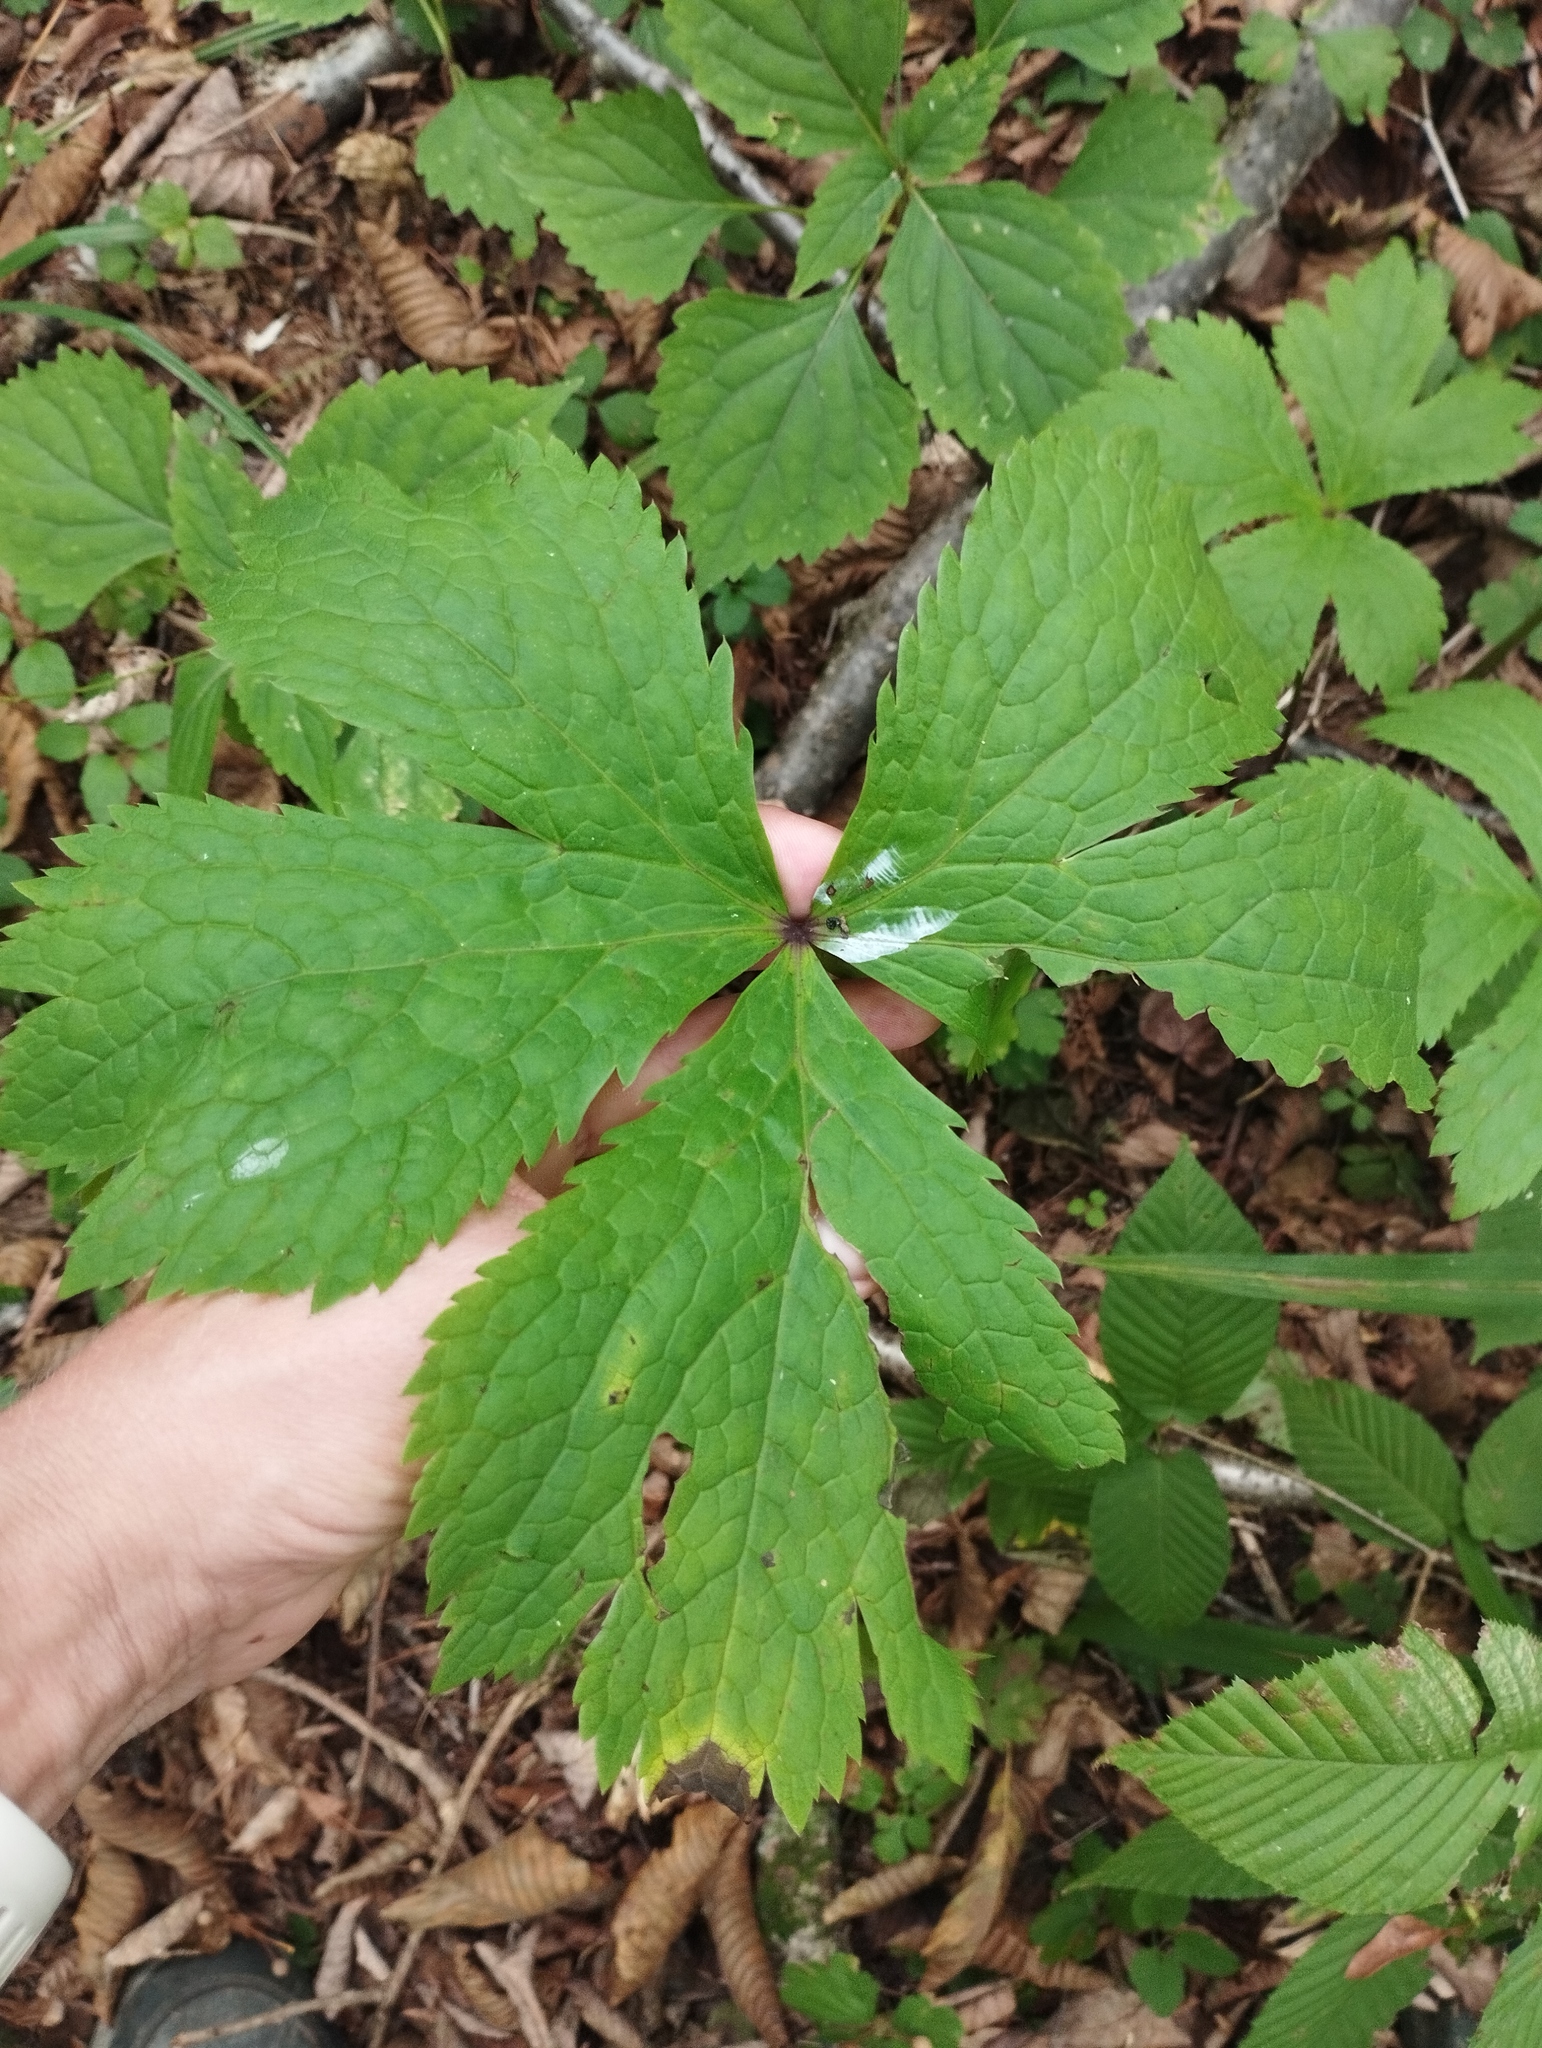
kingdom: Plantae
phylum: Tracheophyta
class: Magnoliopsida
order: Apiales
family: Apiaceae
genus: Sanicula
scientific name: Sanicula rubriflora
